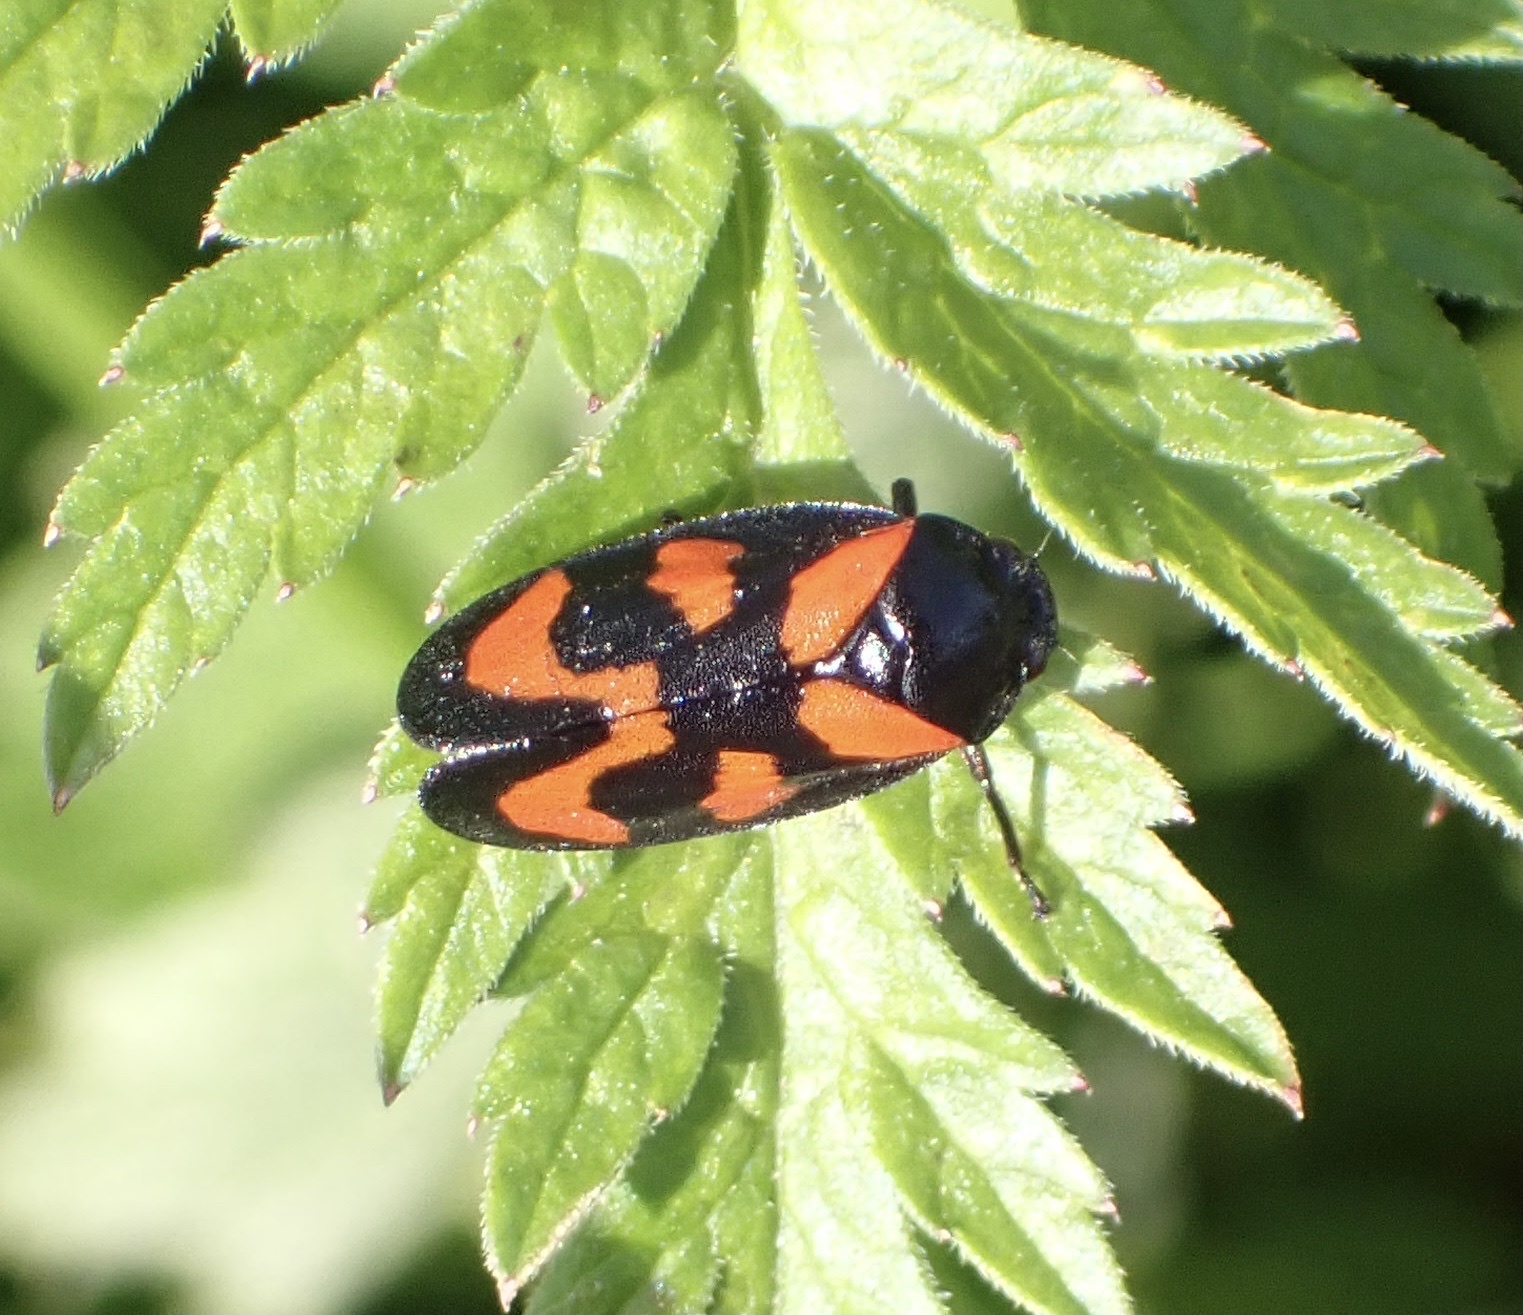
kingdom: Animalia
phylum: Arthropoda
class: Insecta
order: Hemiptera
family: Cercopidae
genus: Cercopis
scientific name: Cercopis vulnerata
